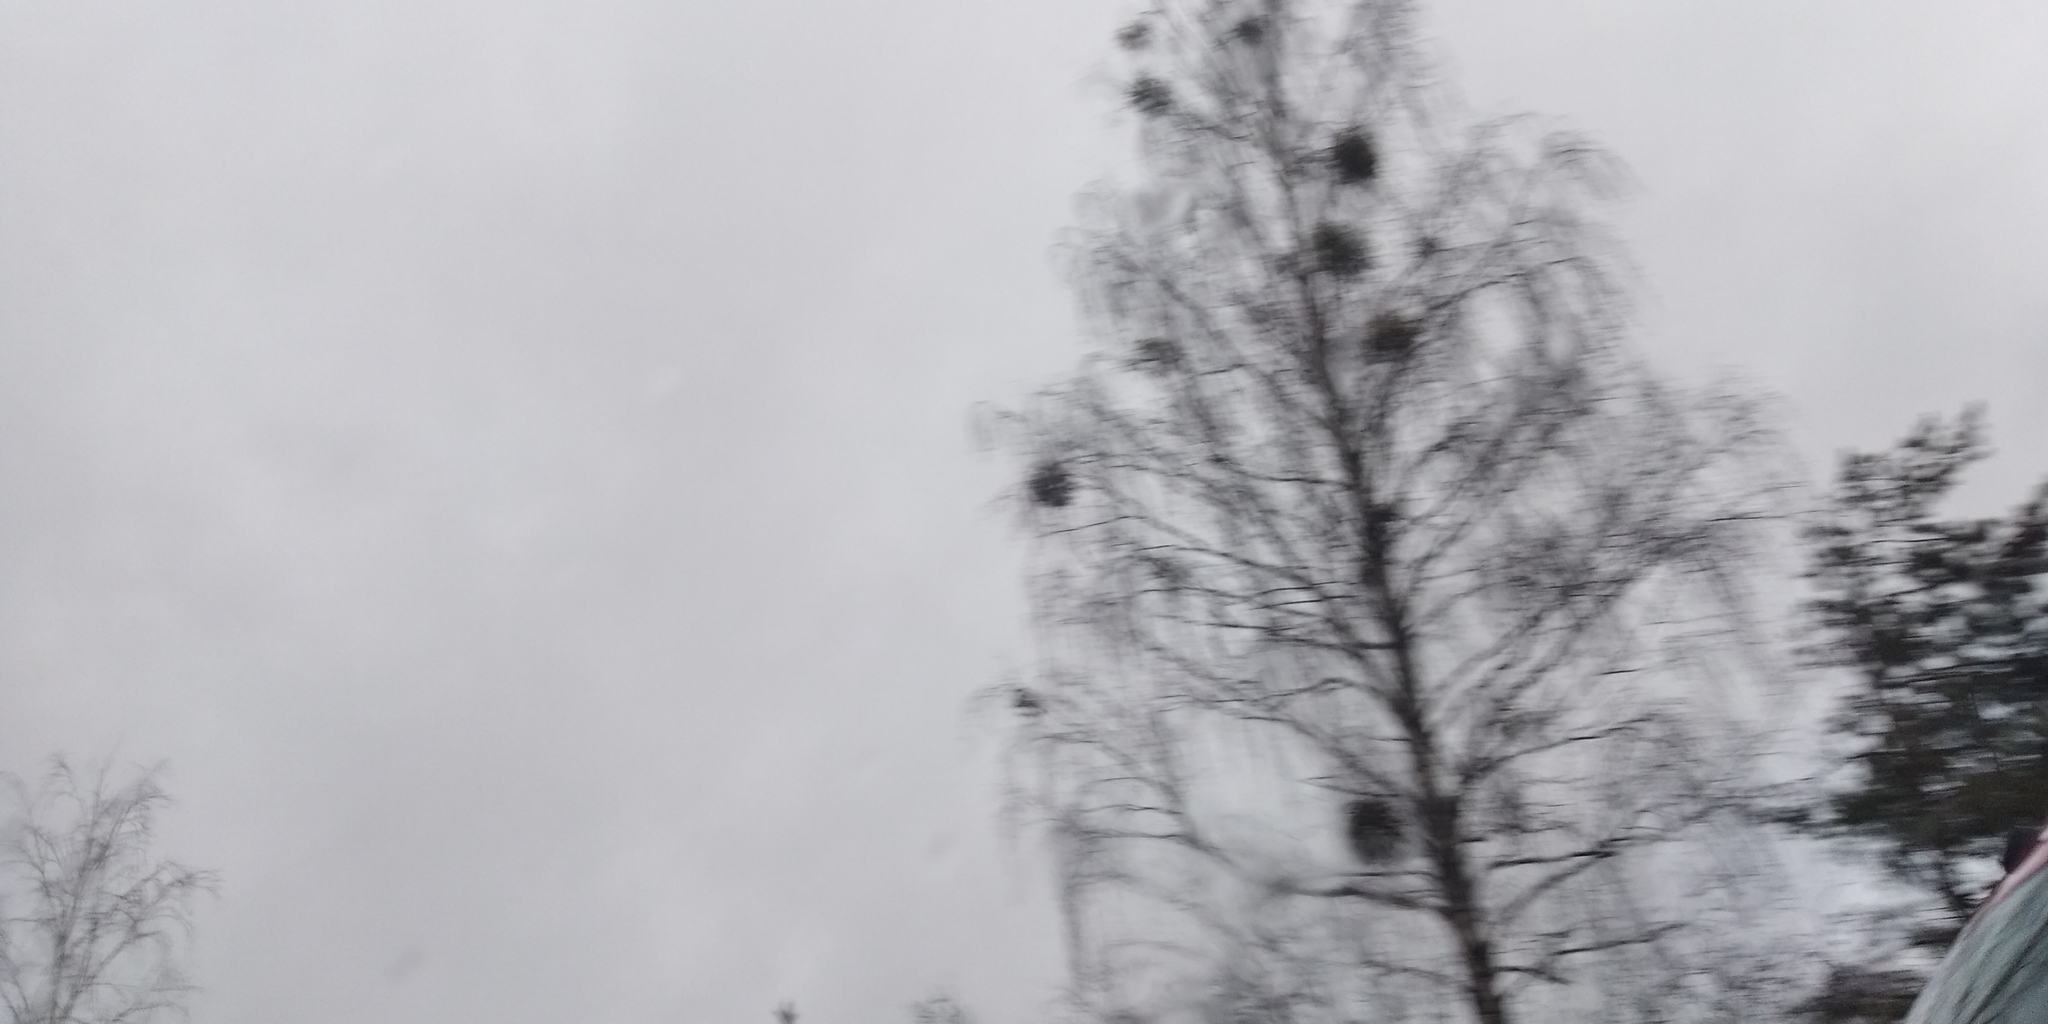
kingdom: Plantae
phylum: Tracheophyta
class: Magnoliopsida
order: Santalales
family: Viscaceae
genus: Viscum
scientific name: Viscum album
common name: Mistletoe
